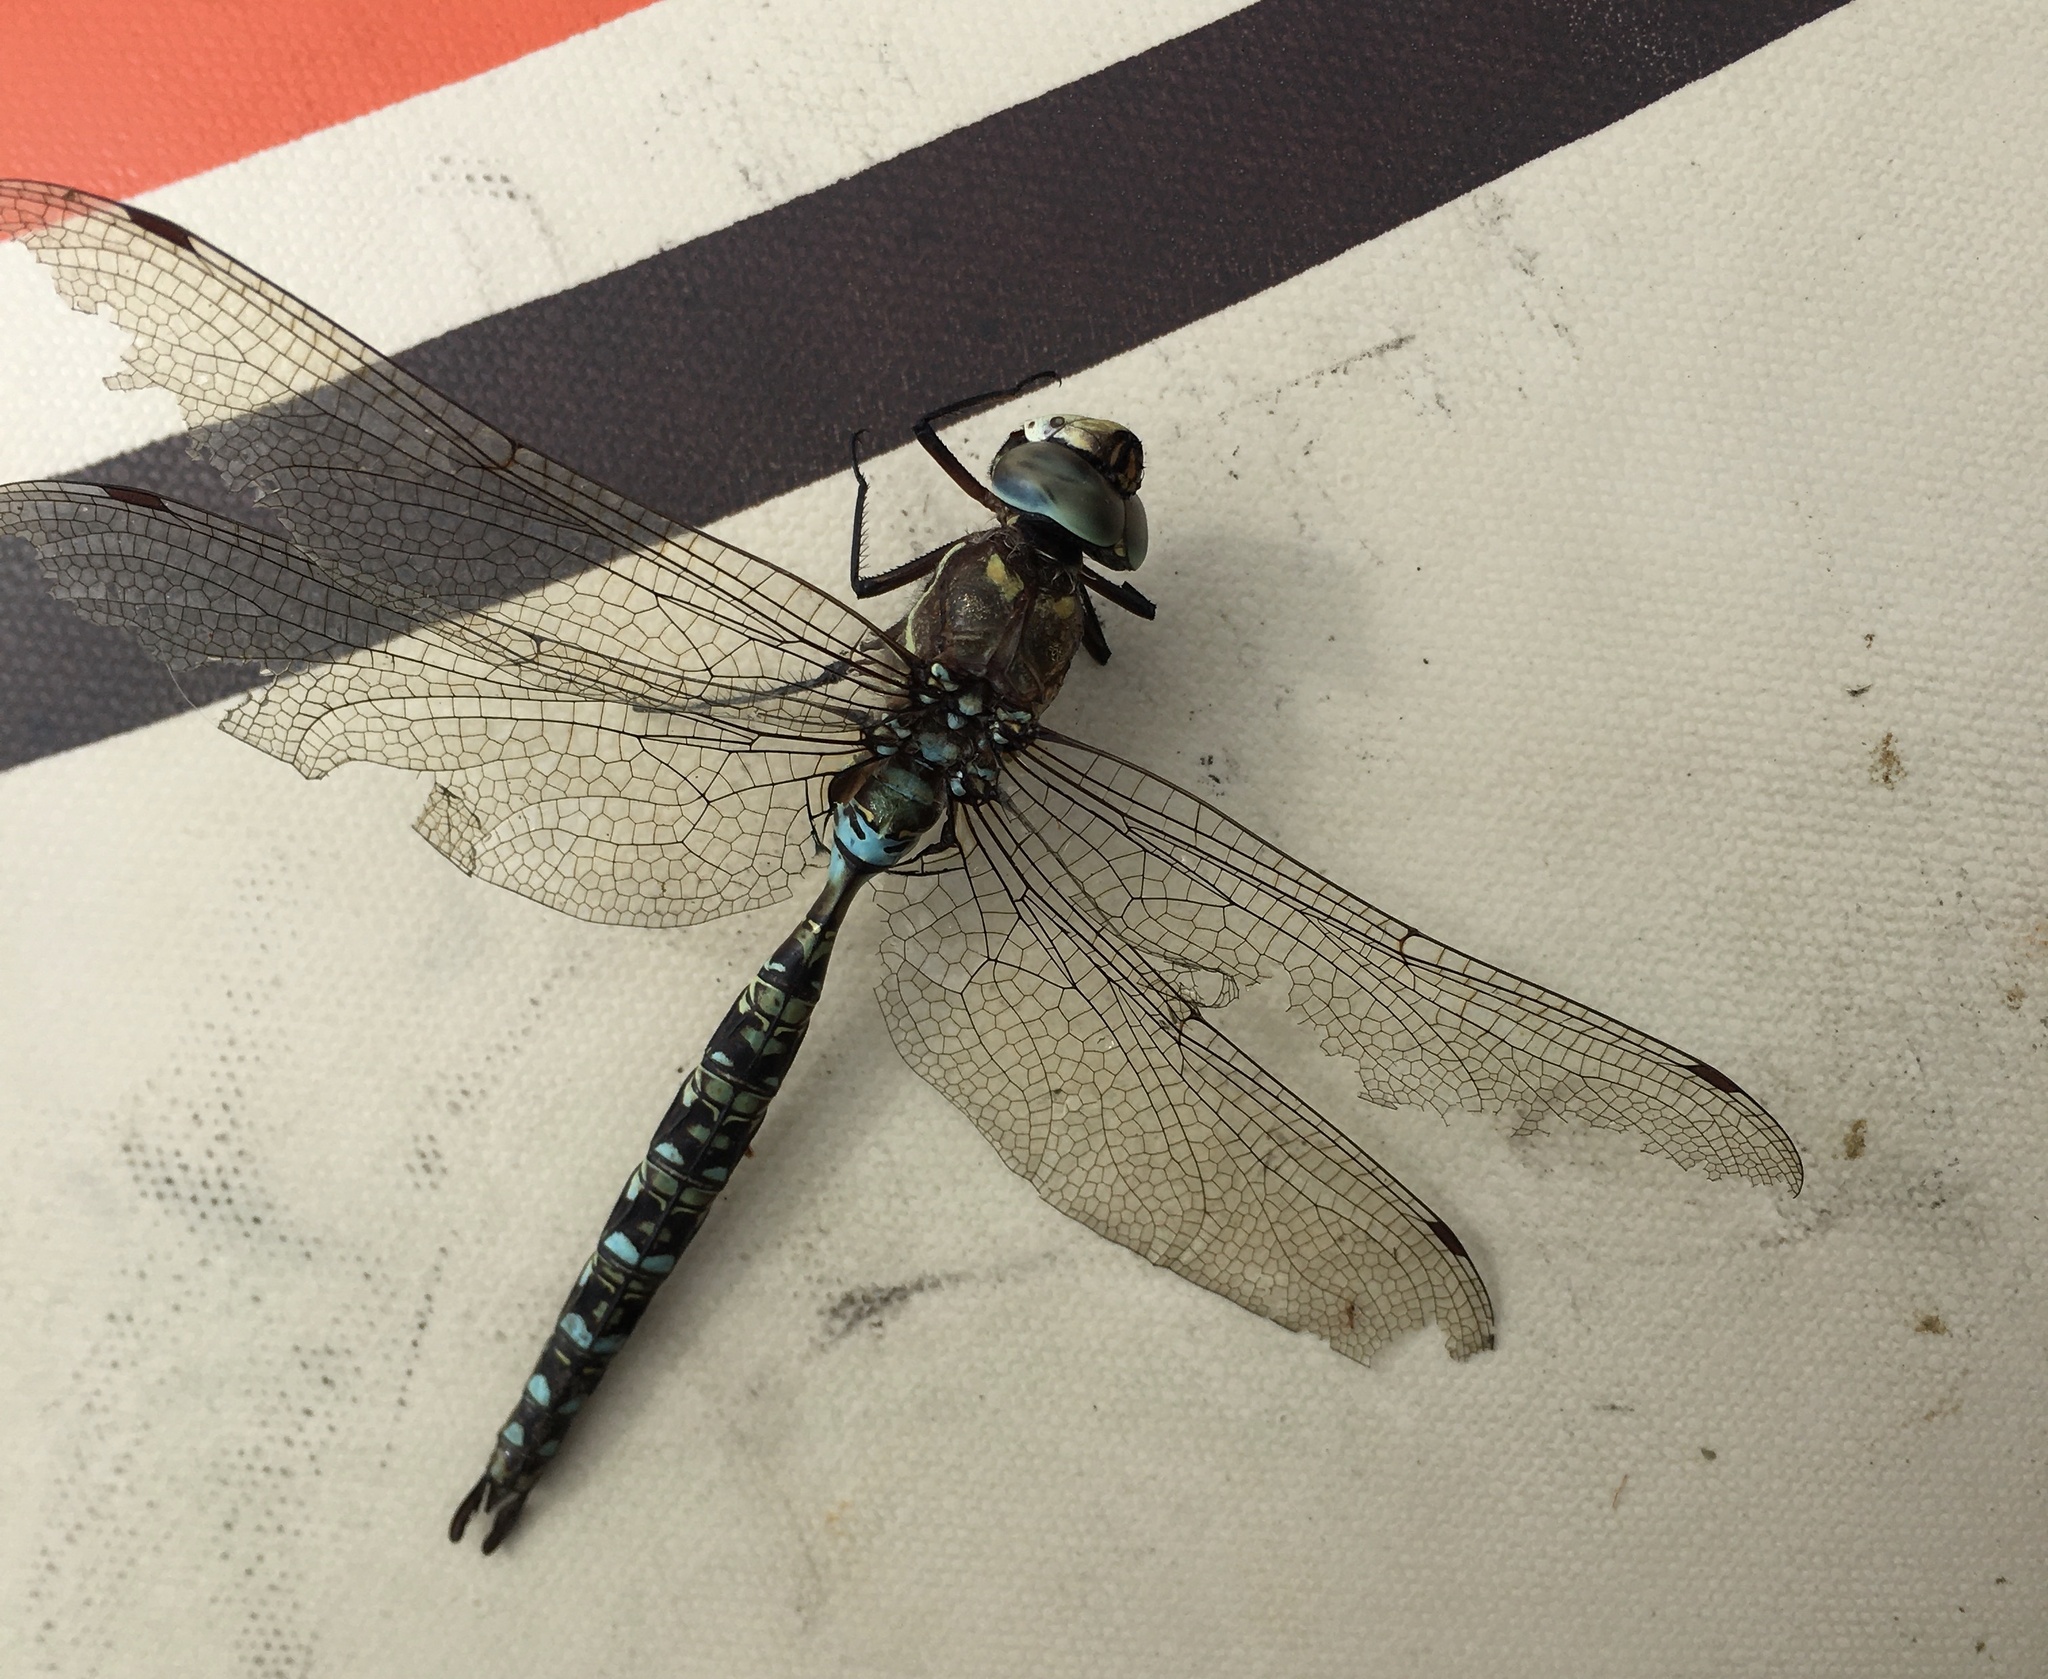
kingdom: Animalia
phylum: Arthropoda
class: Insecta
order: Odonata
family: Aeshnidae
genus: Rhionaeschna
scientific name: Rhionaeschna marchali
